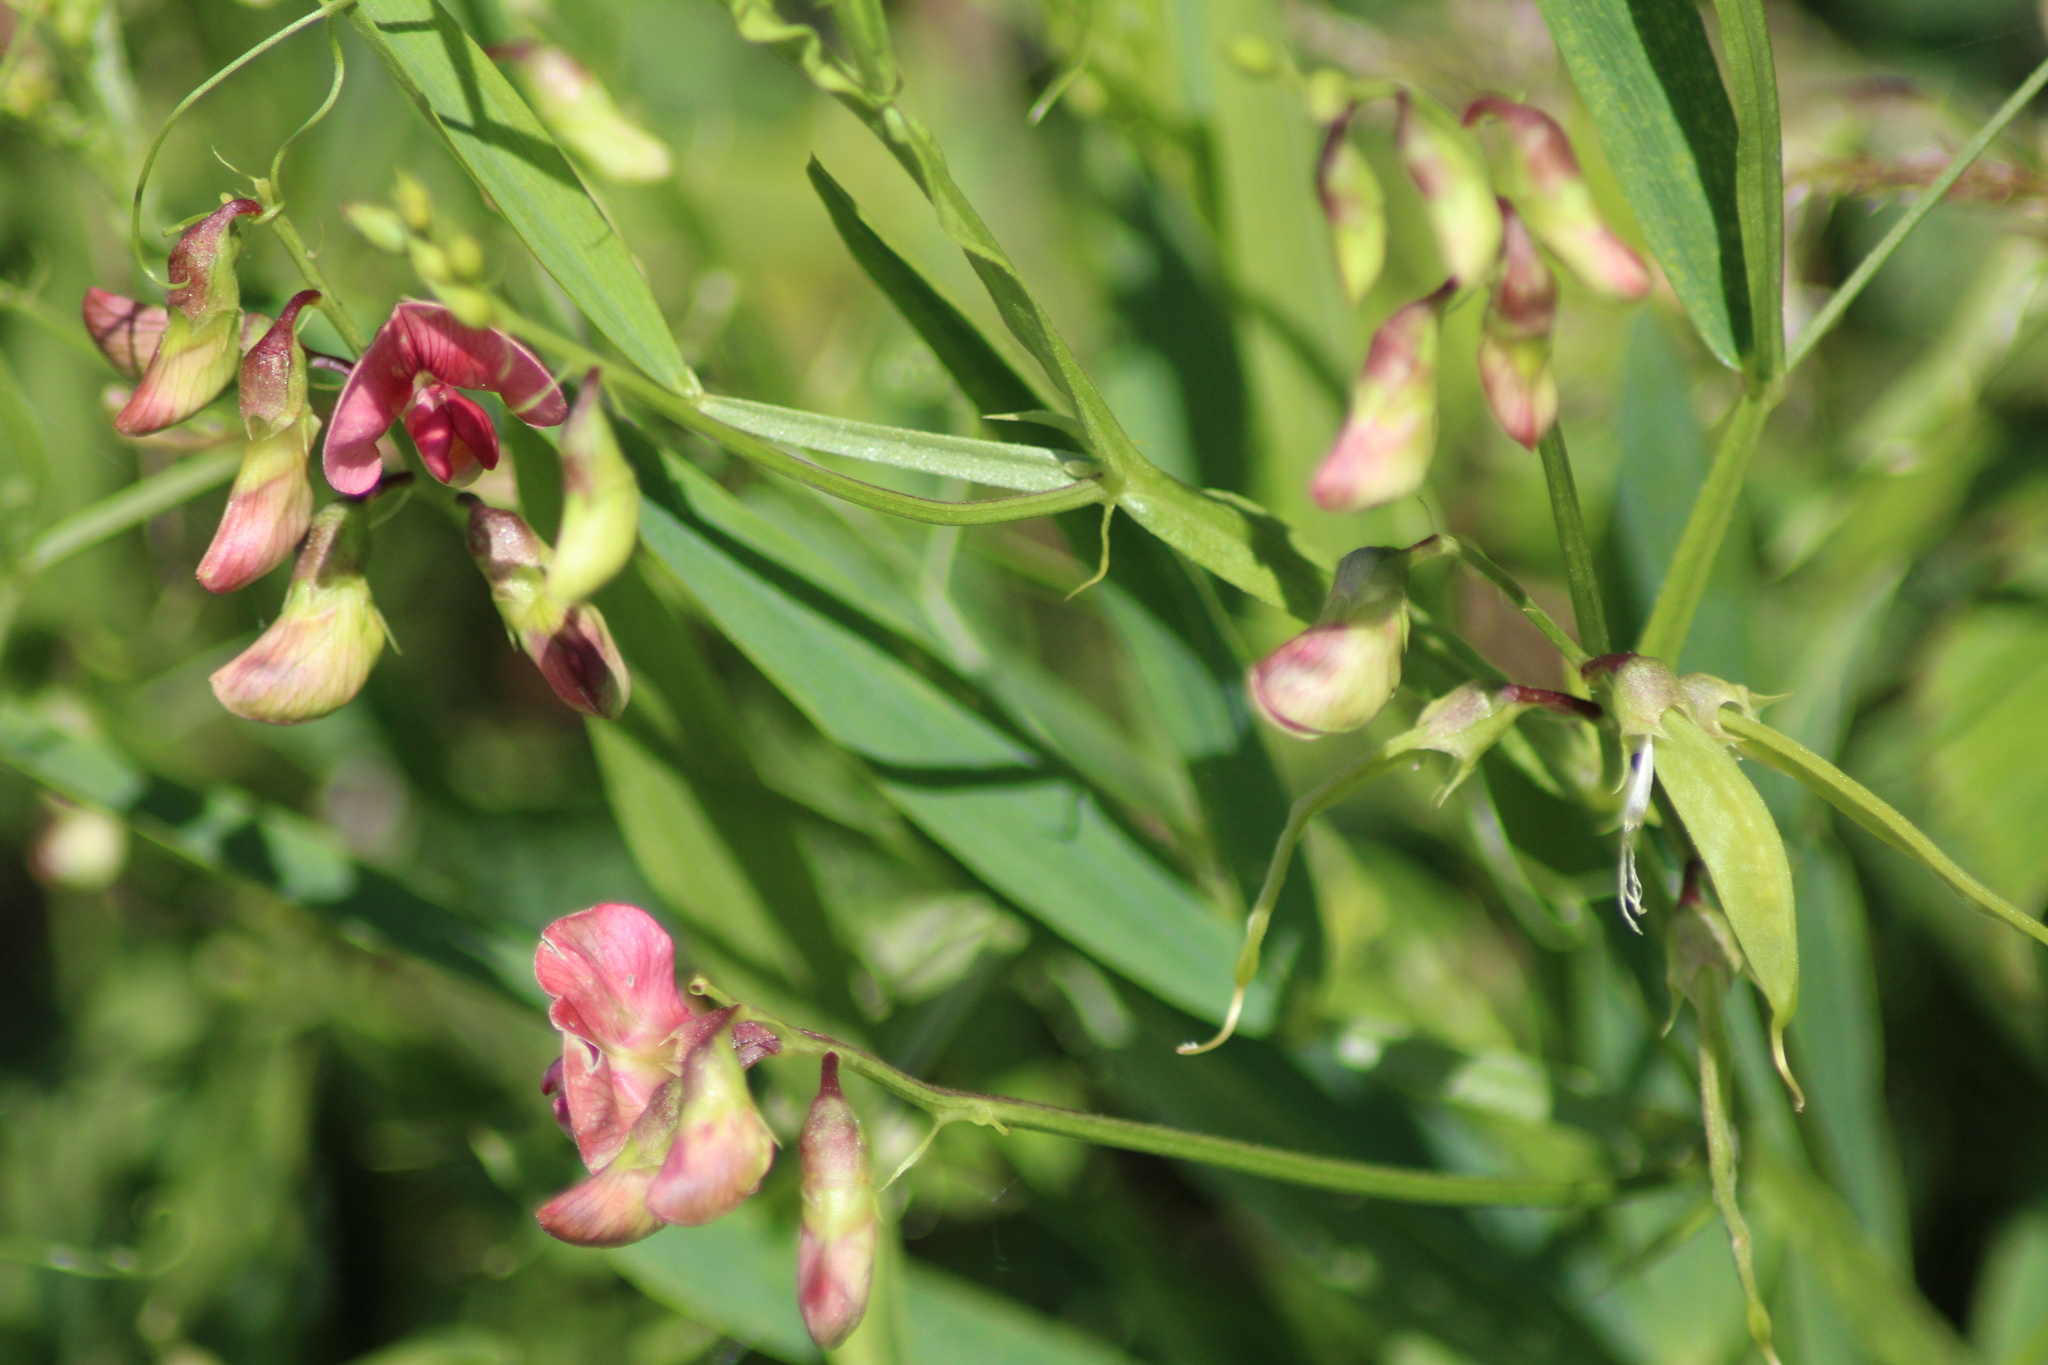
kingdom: Plantae
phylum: Tracheophyta
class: Magnoliopsida
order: Fabales
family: Fabaceae
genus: Lathyrus
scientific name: Lathyrus sylvestris
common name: Flat pea
